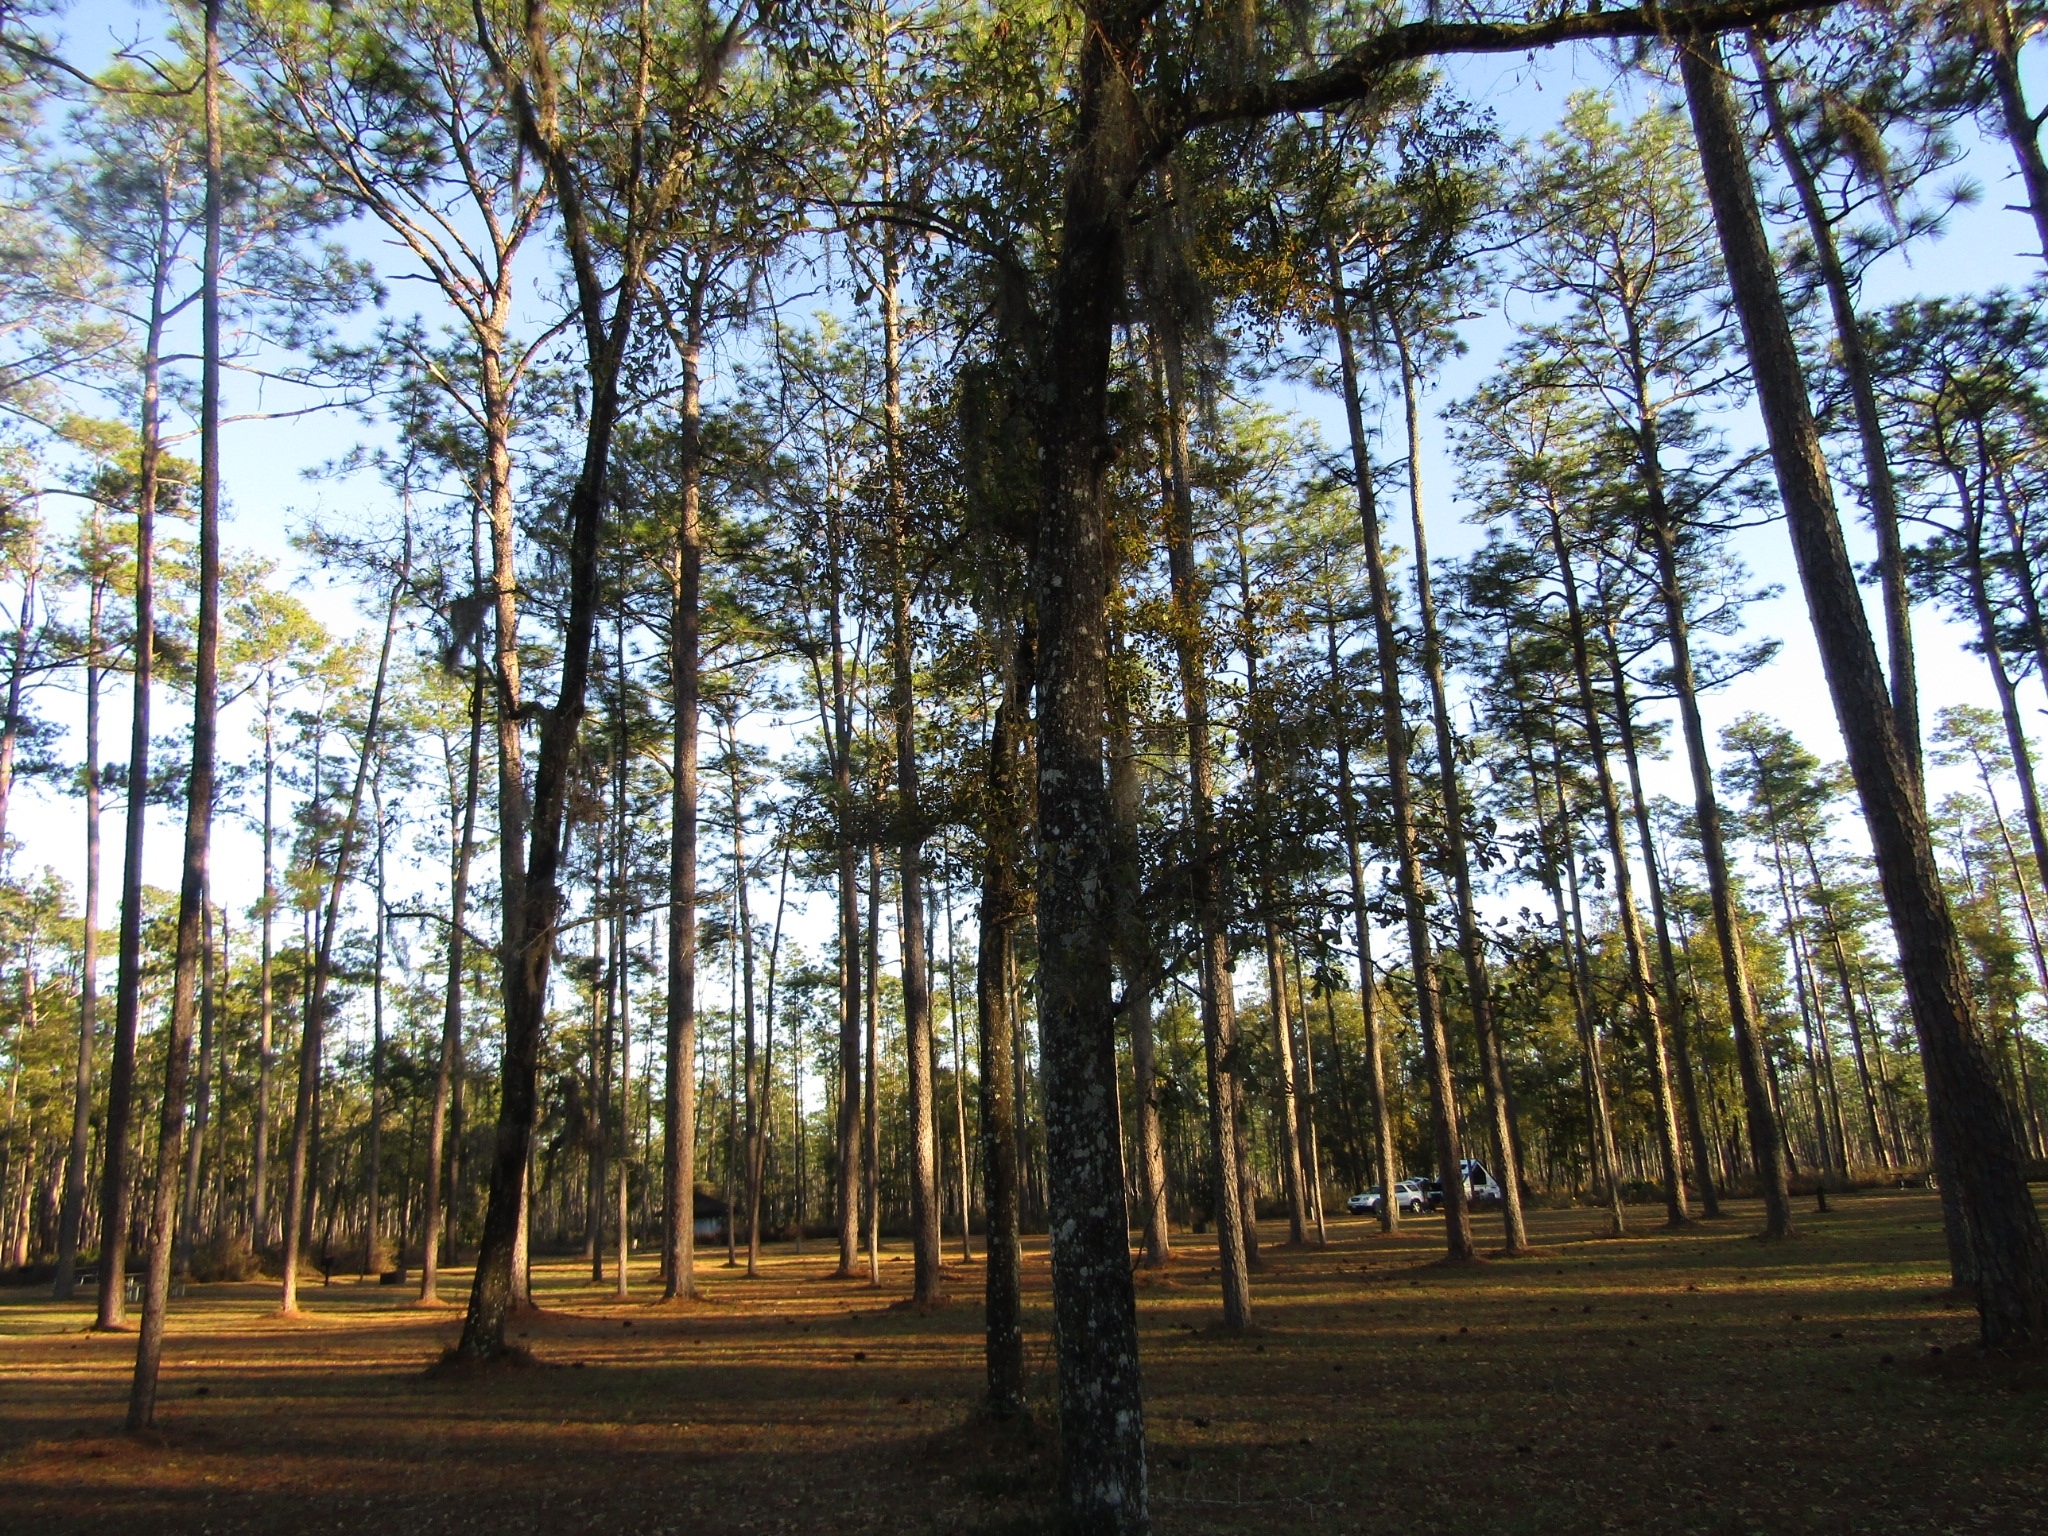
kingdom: Plantae
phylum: Tracheophyta
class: Liliopsida
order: Poales
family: Bromeliaceae
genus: Tillandsia
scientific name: Tillandsia usneoides
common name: Spanish moss
